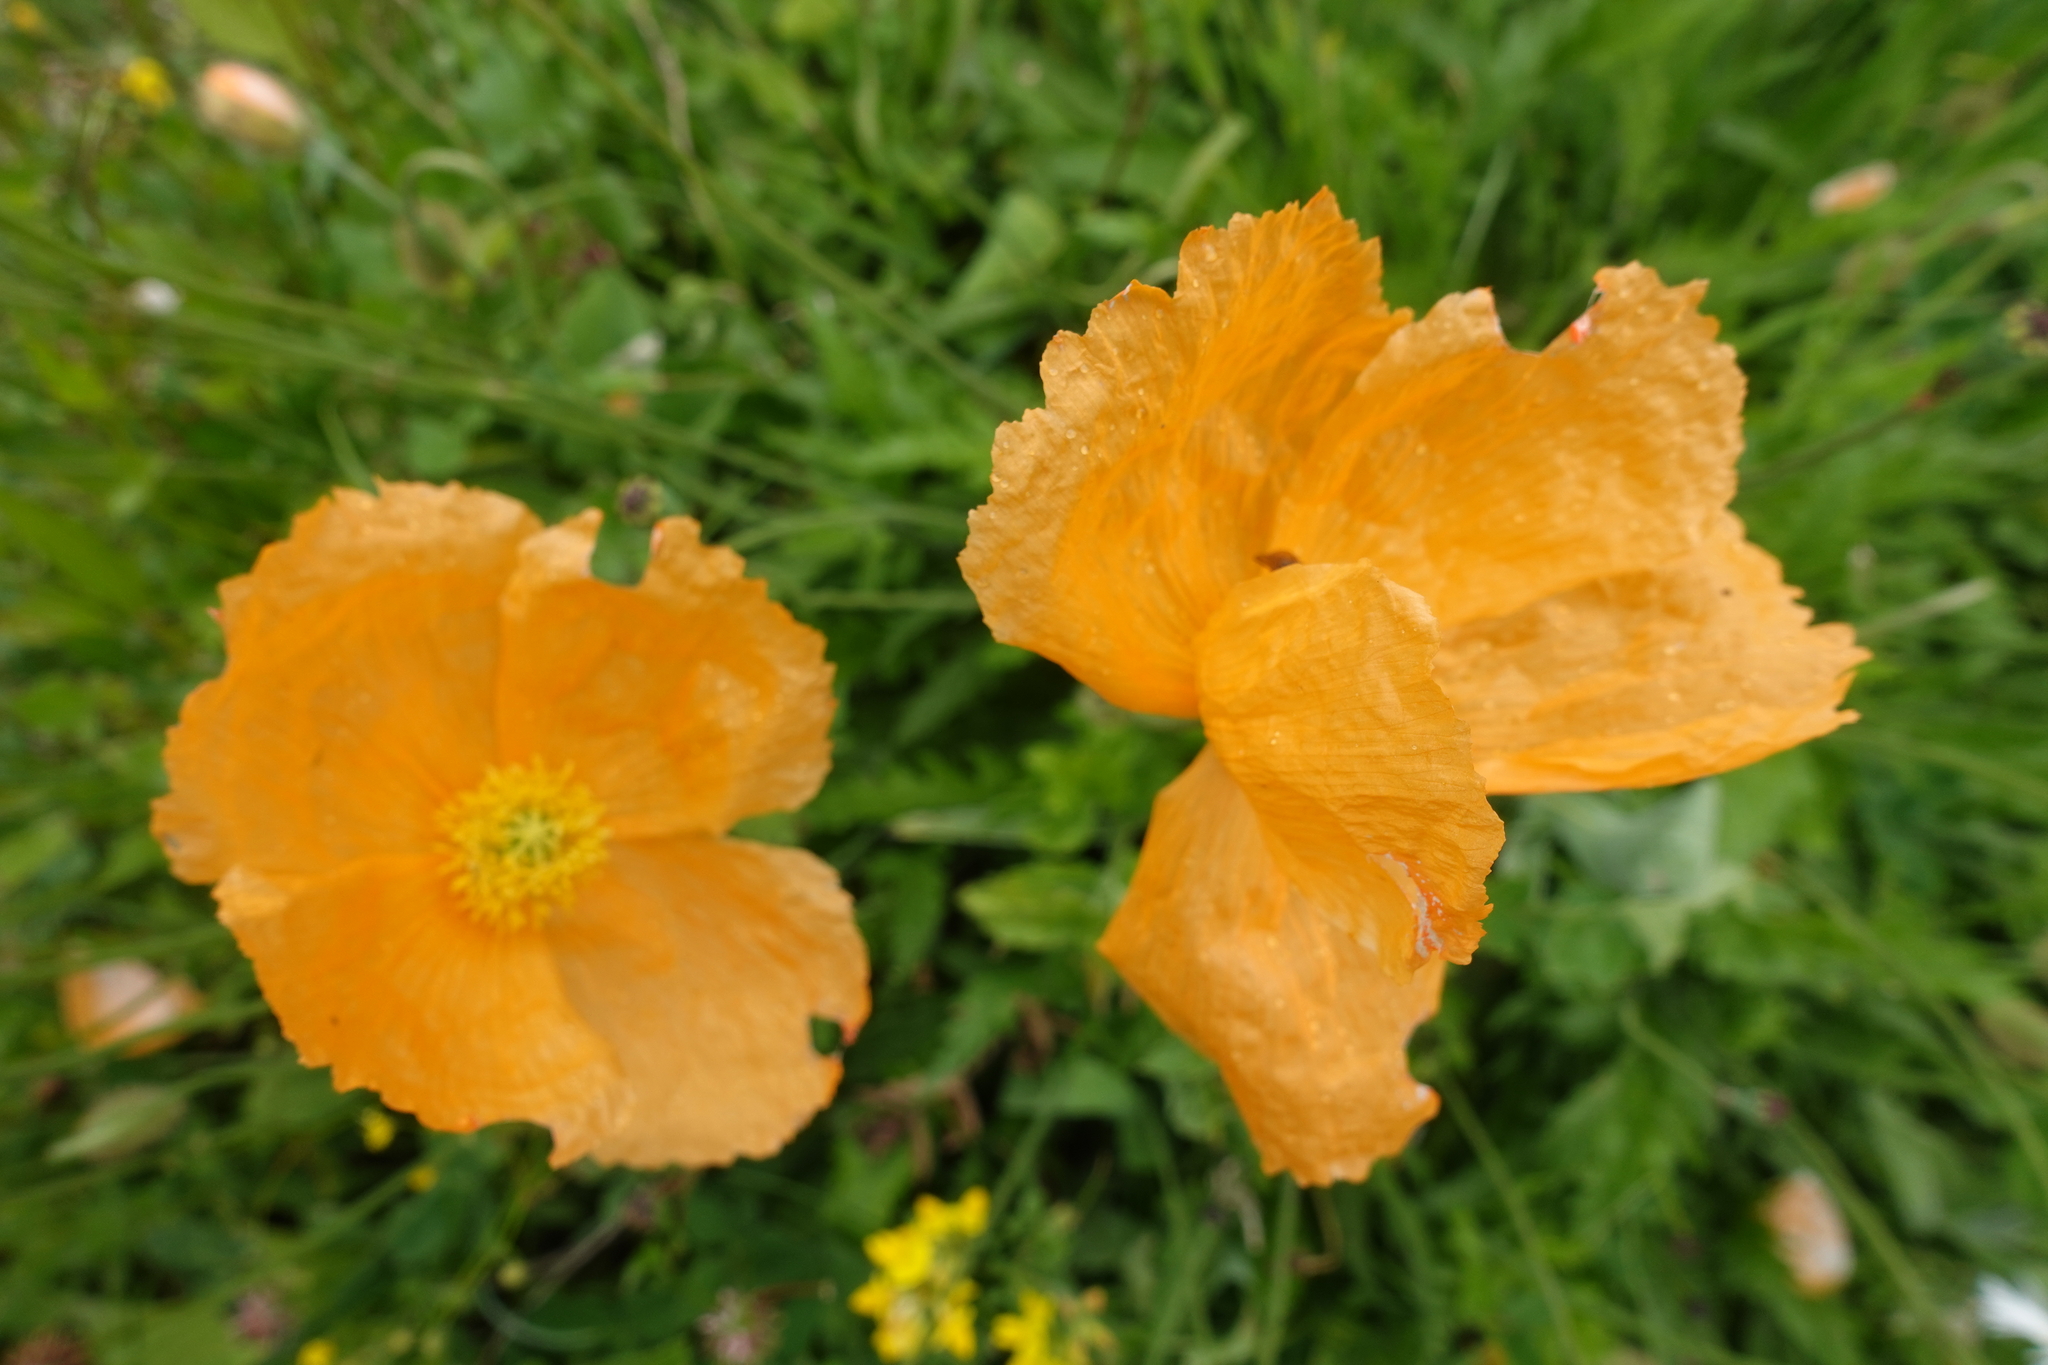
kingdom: Plantae
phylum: Tracheophyta
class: Magnoliopsida
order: Ranunculales
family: Papaveraceae
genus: Papaver
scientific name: Papaver oreophilum
